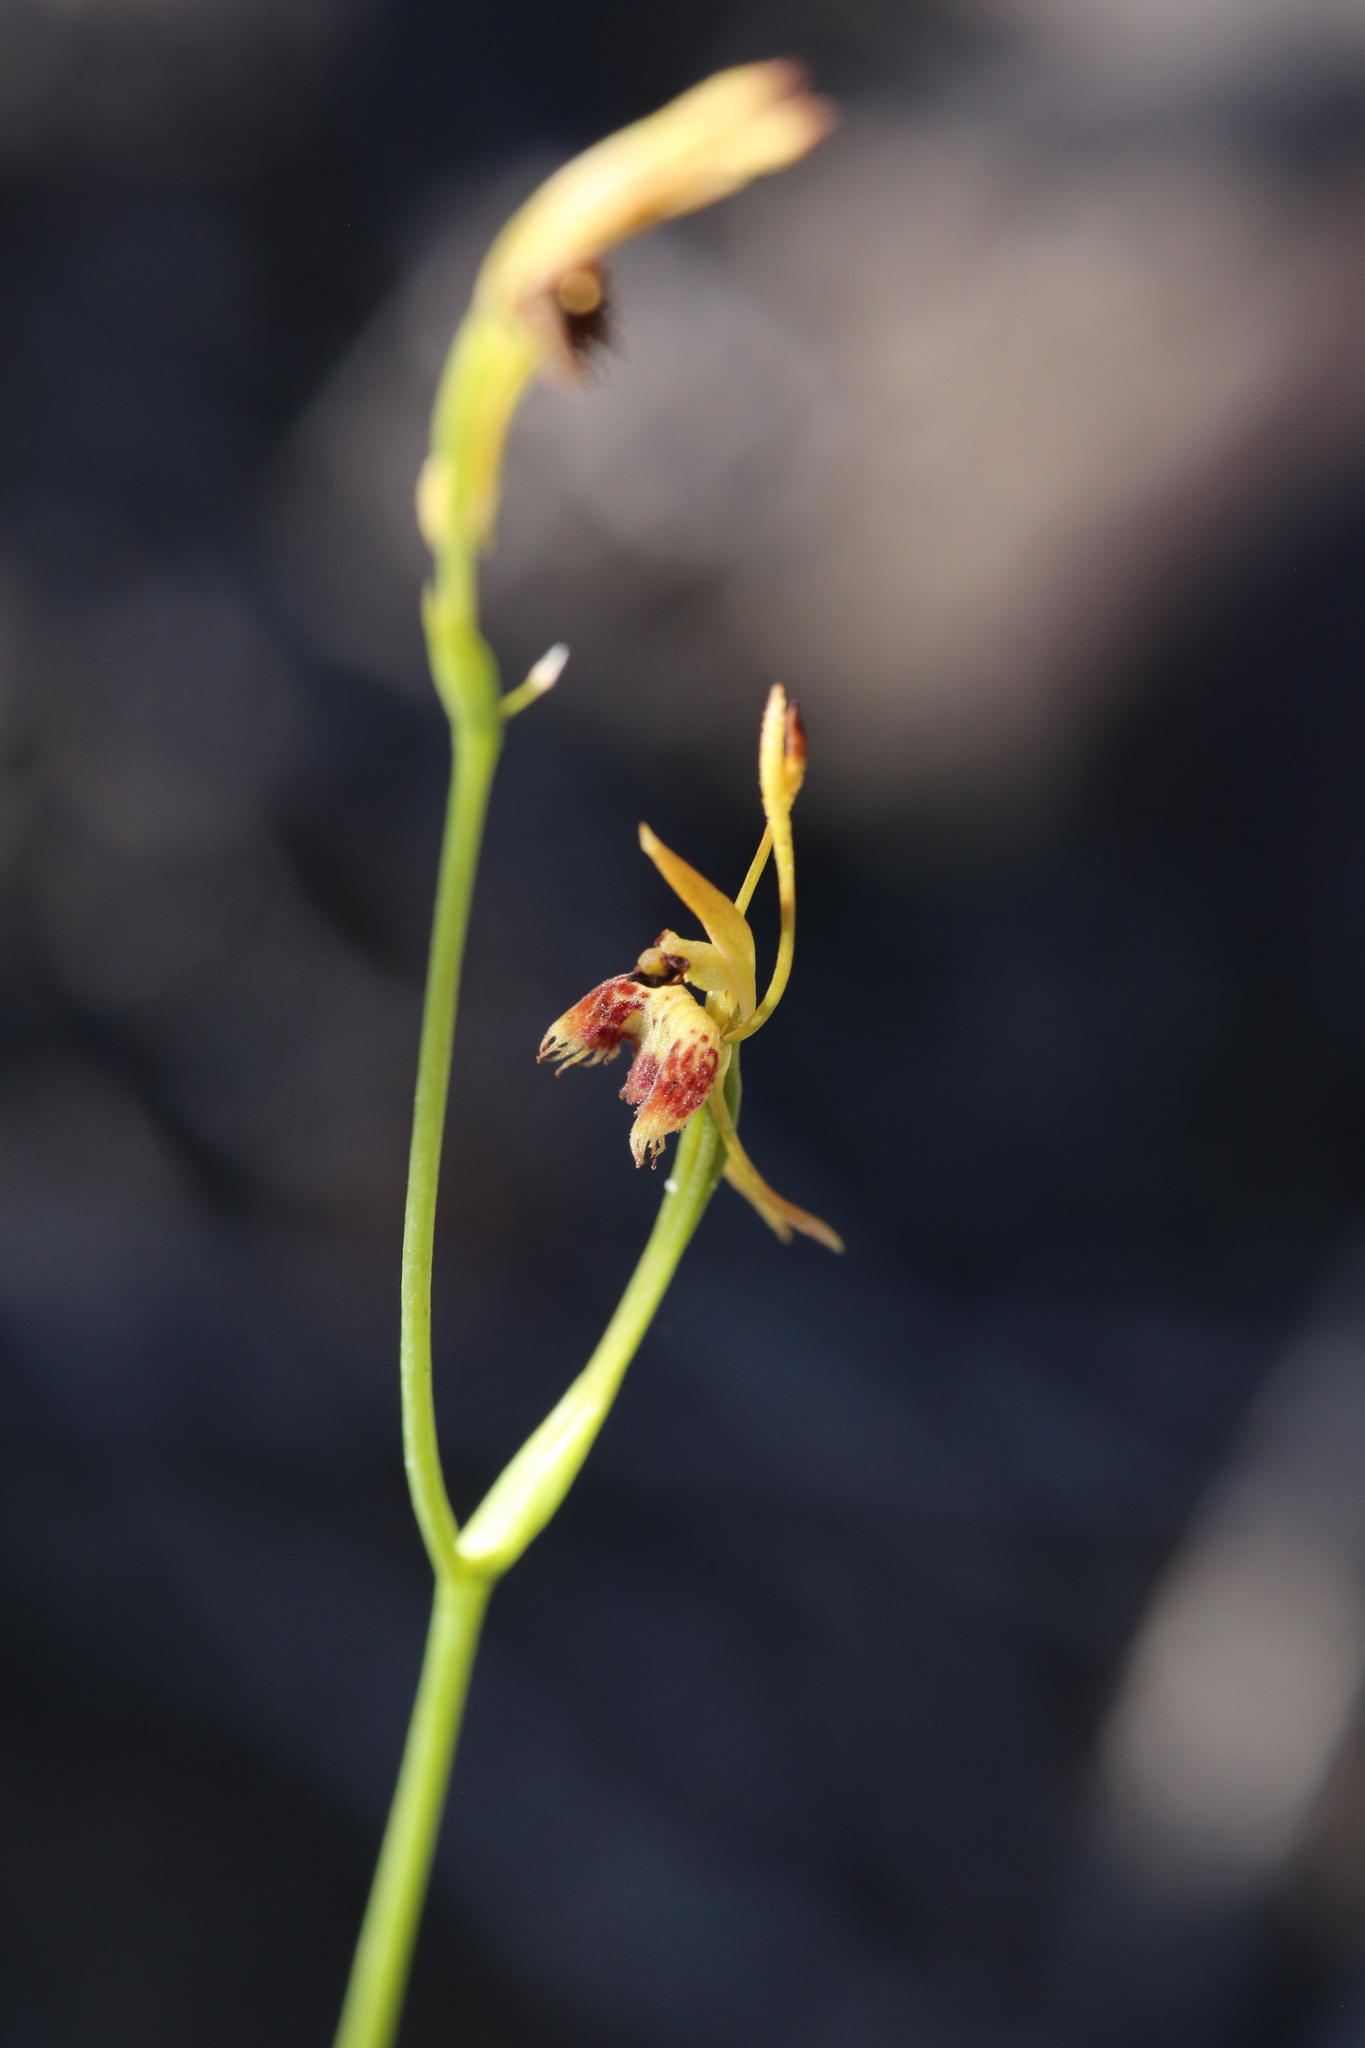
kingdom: Plantae
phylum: Tracheophyta
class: Liliopsida
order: Asparagales
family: Orchidaceae
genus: Leporella
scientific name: Leporella fimbriata
